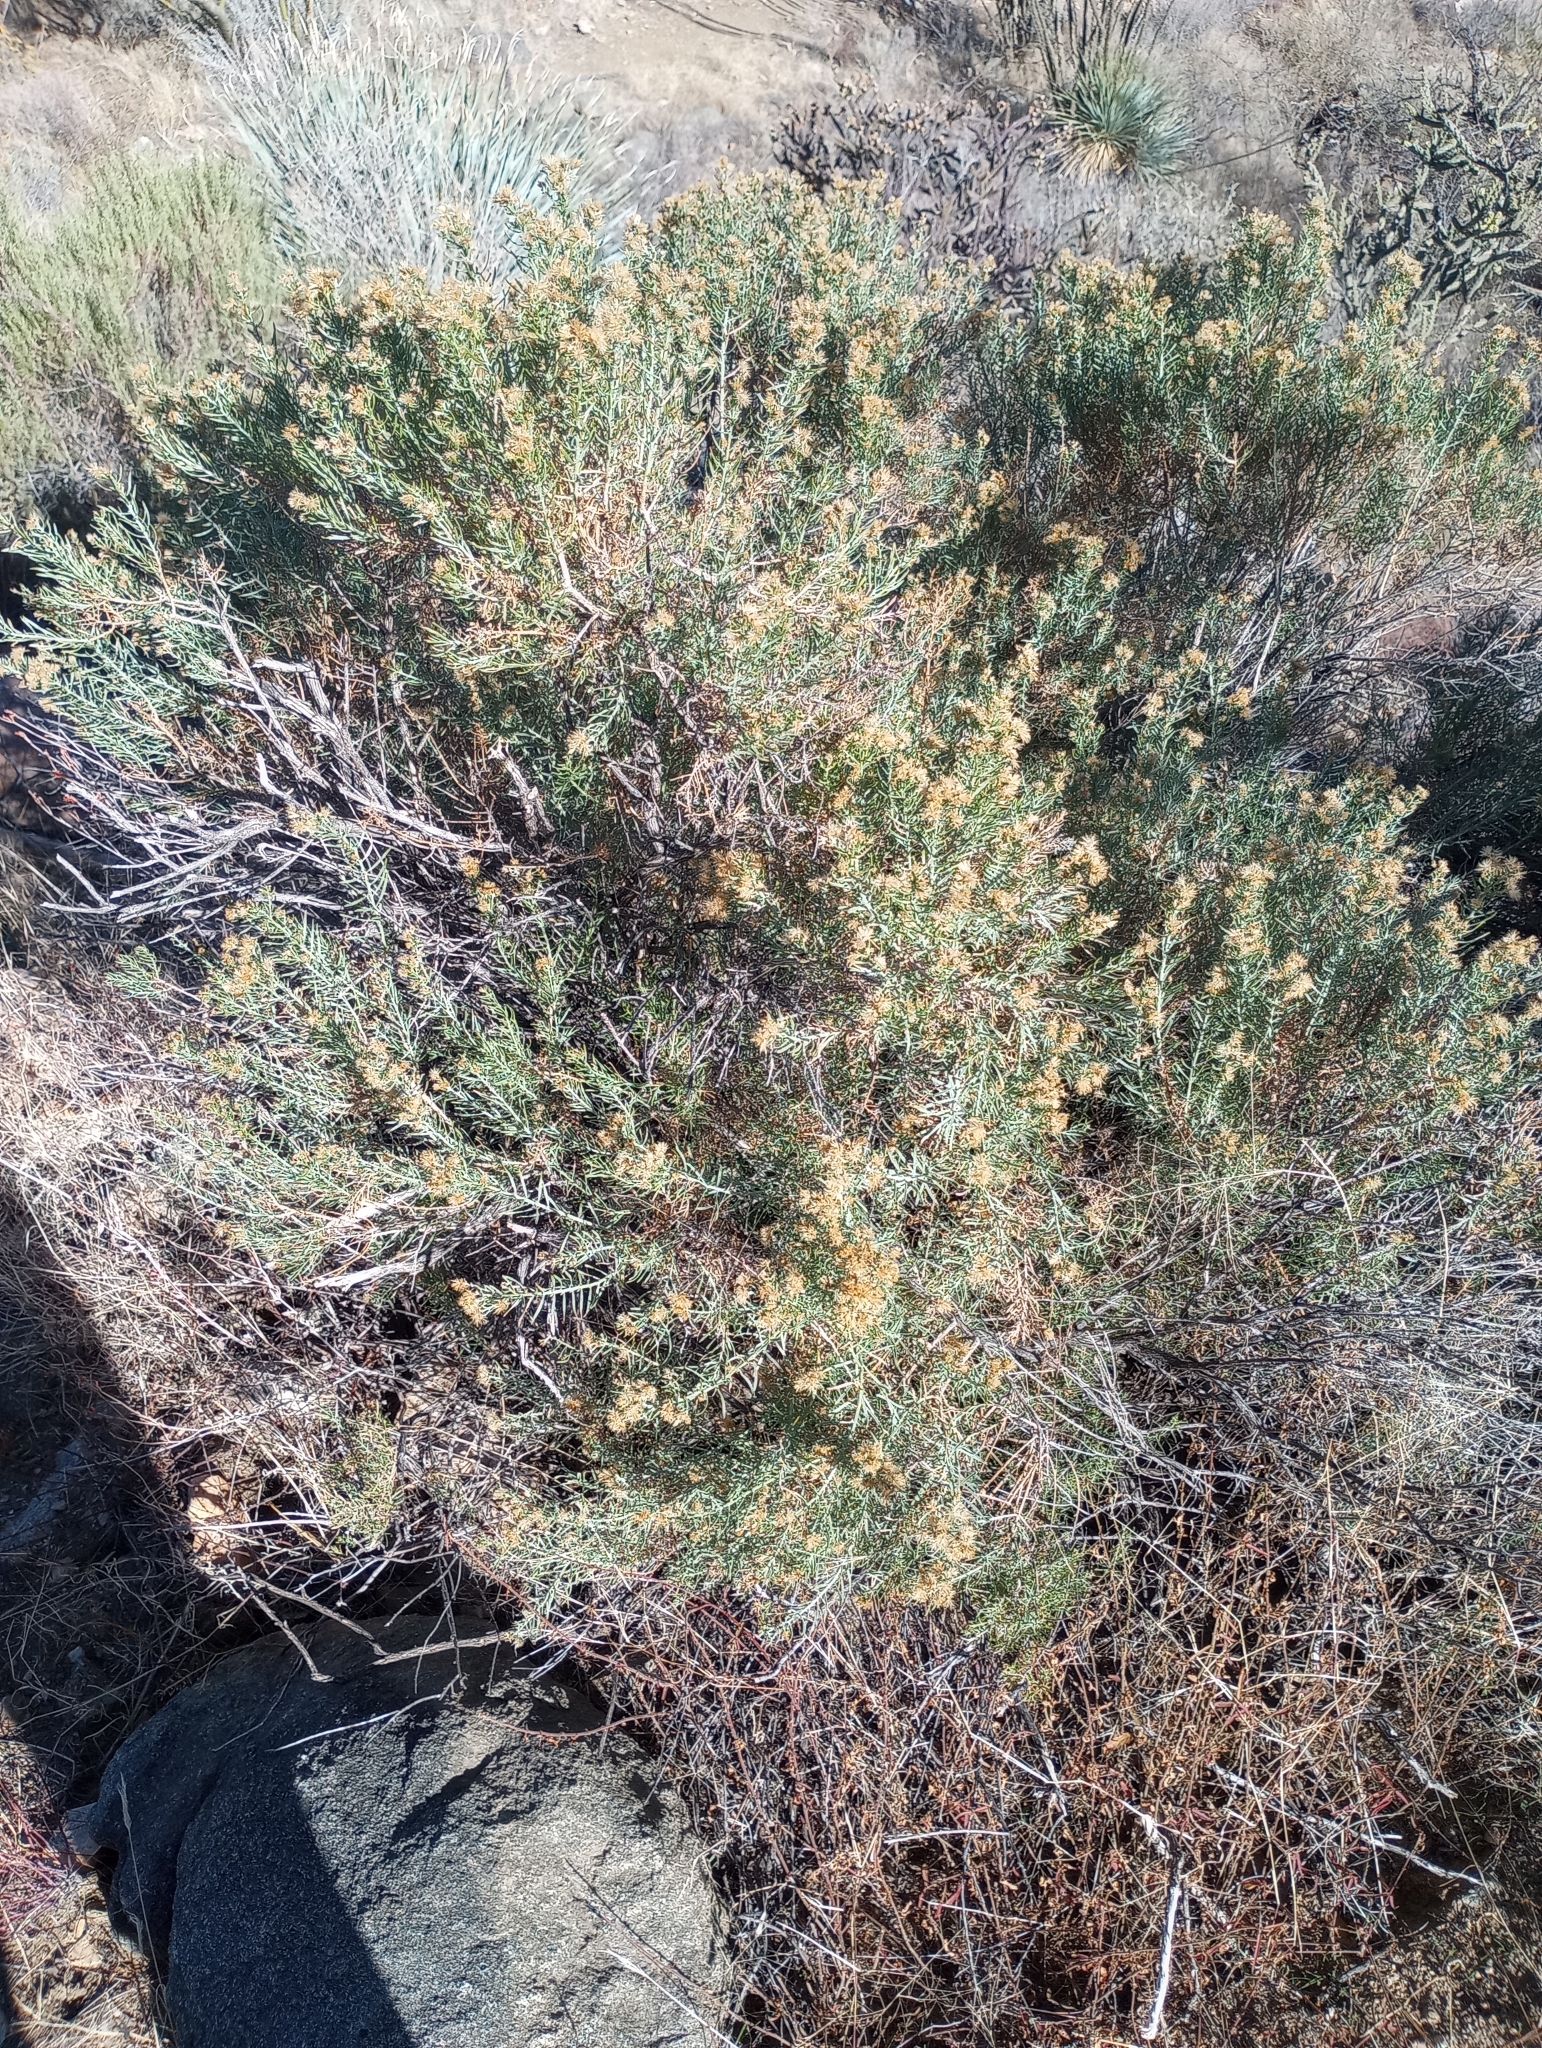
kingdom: Plantae
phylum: Tracheophyta
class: Magnoliopsida
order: Asterales
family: Asteraceae
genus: Ericameria
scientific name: Ericameria laricifolia
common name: Turpentine-bush
